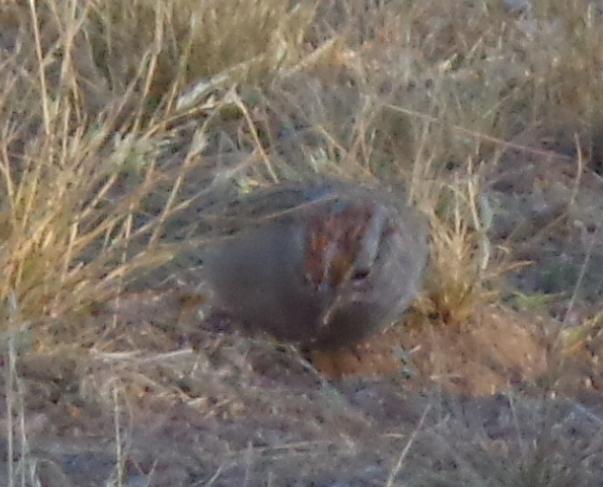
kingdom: Animalia
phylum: Chordata
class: Aves
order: Passeriformes
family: Passerellidae
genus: Peucaea
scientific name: Peucaea carpalis
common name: Rufous-winged sparrow
